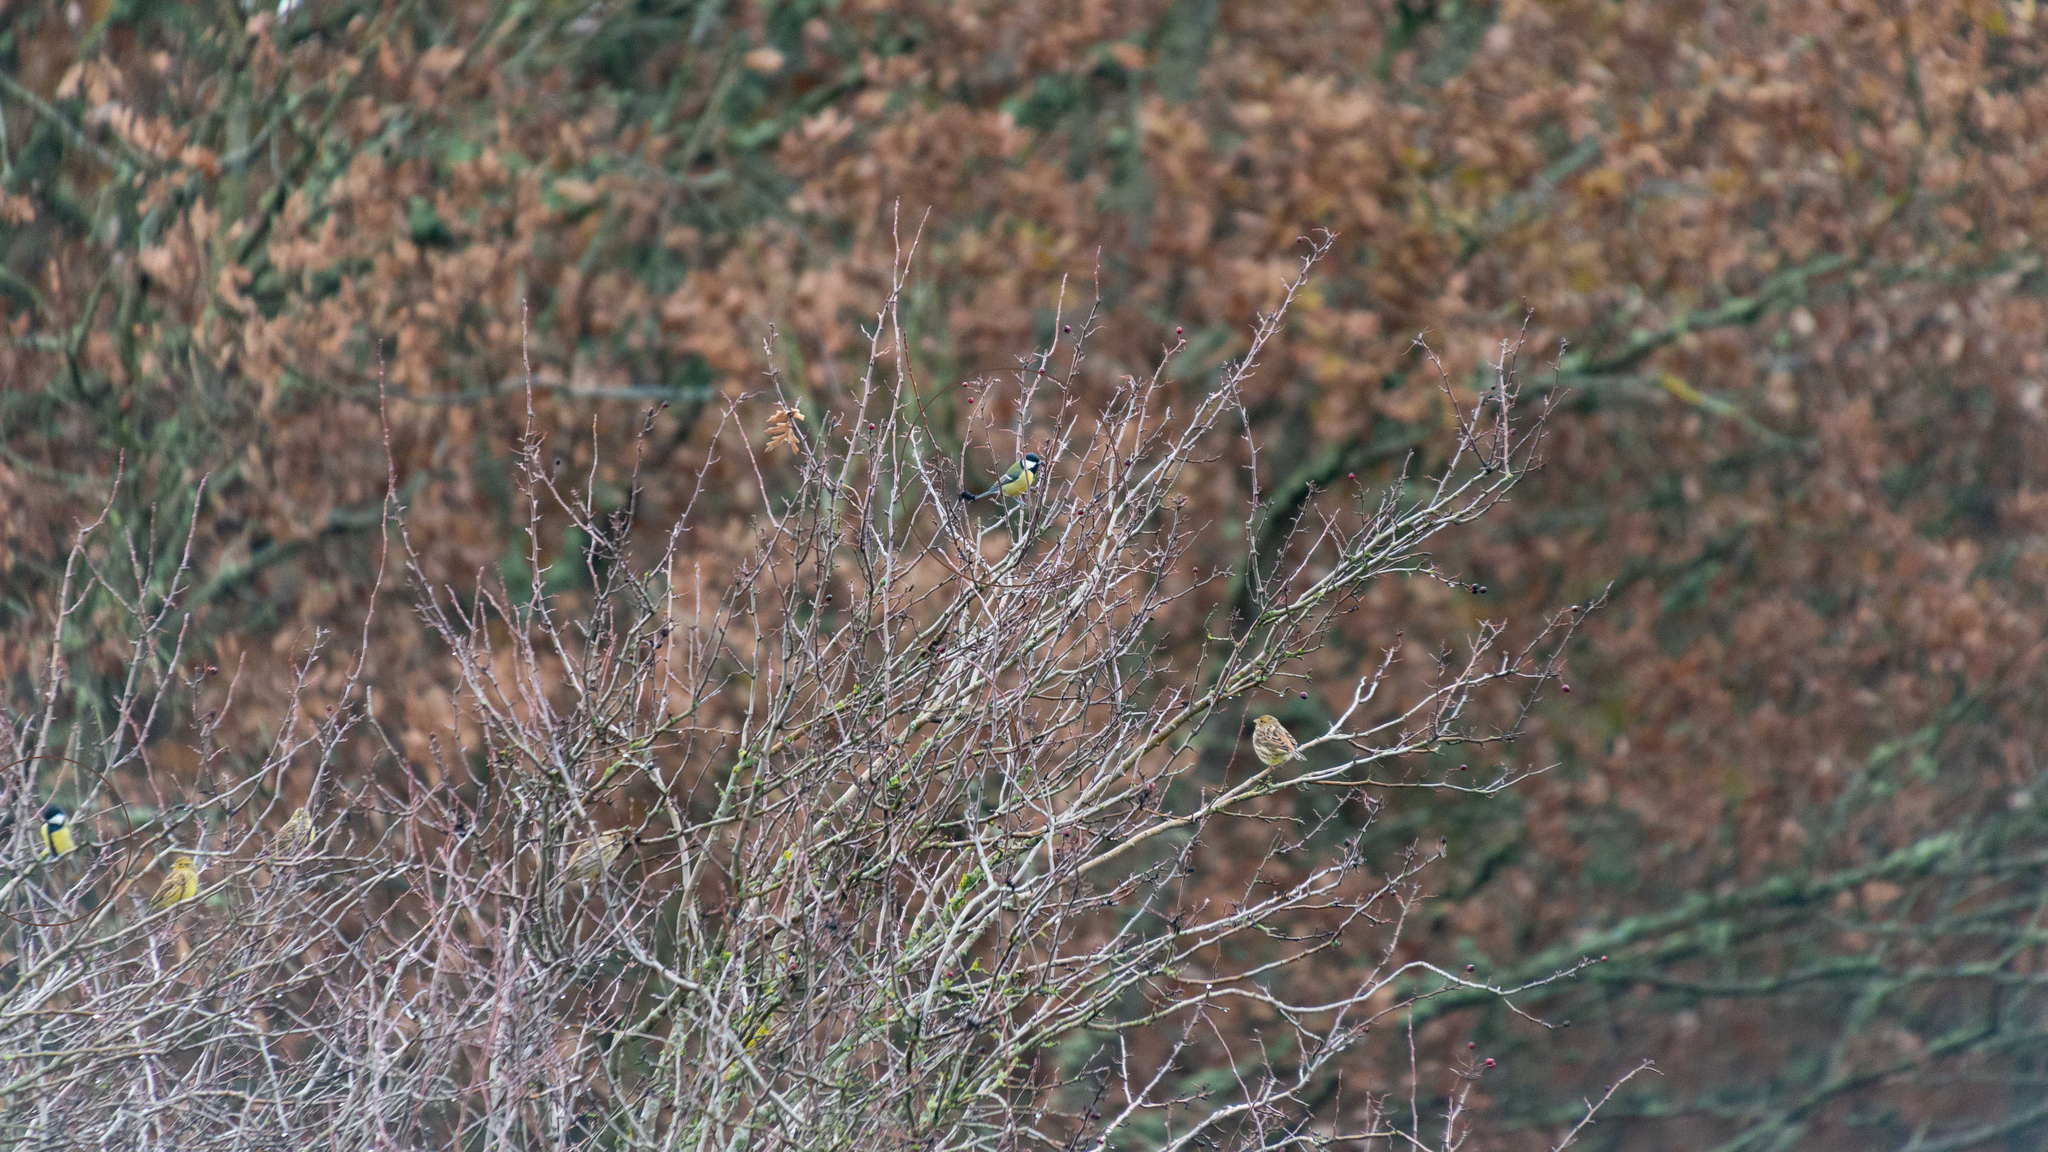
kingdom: Animalia
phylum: Chordata
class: Aves
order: Passeriformes
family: Paridae
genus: Parus
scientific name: Parus major
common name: Great tit
